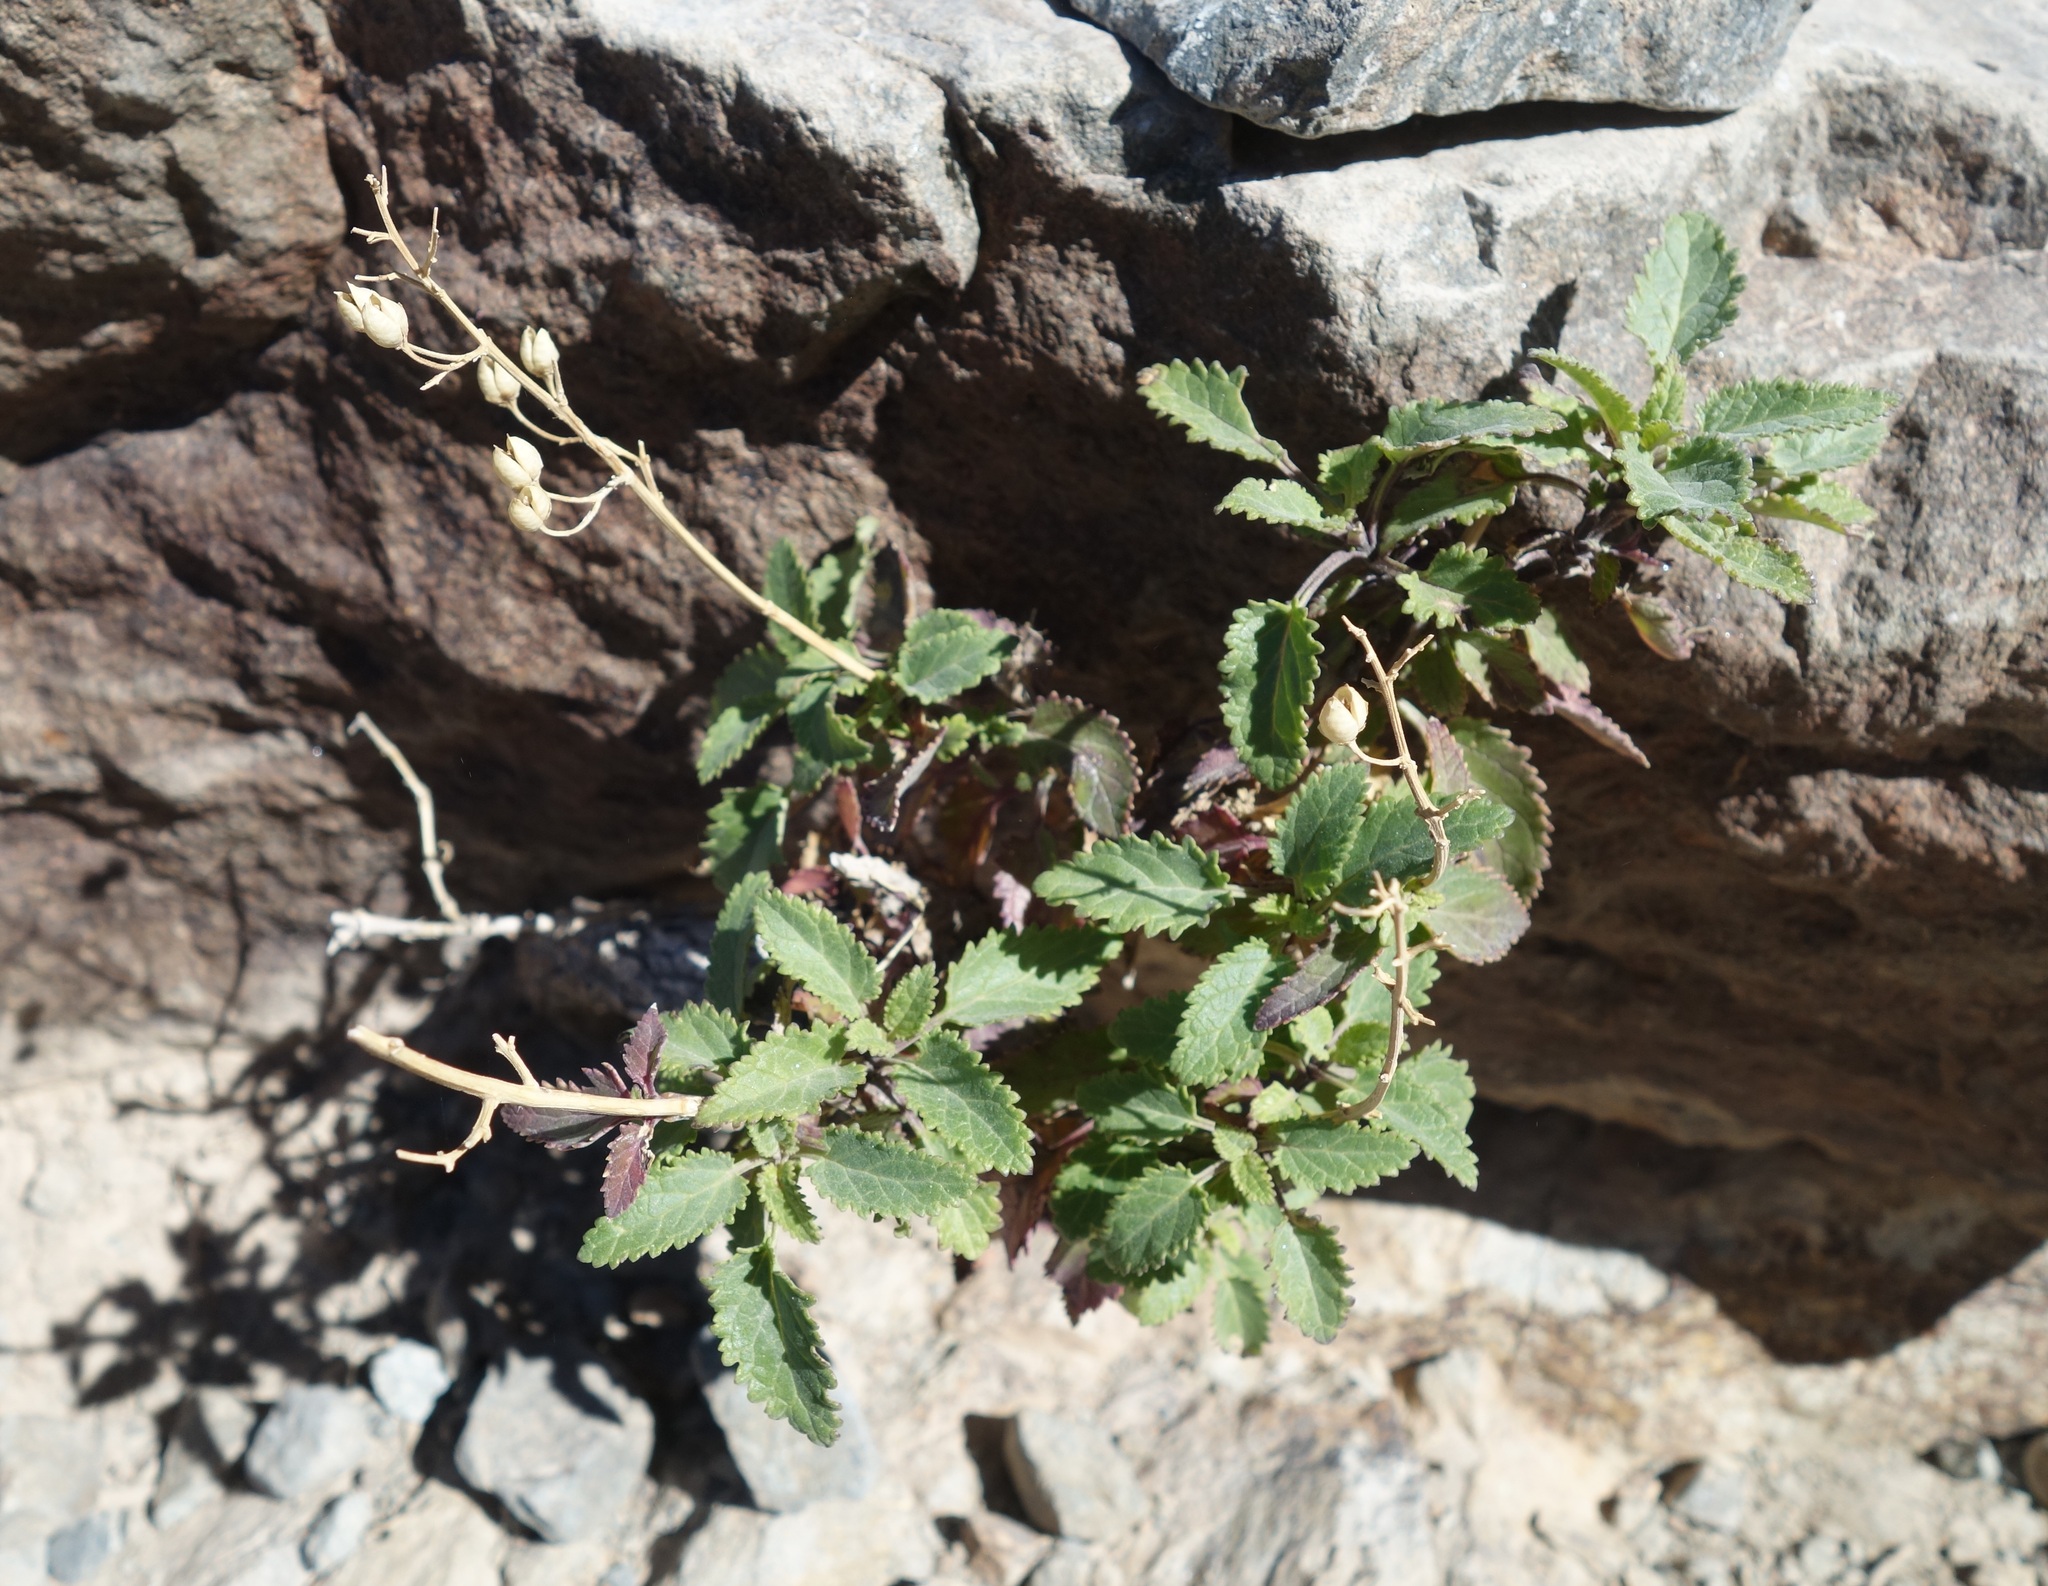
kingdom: Plantae
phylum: Tracheophyta
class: Magnoliopsida
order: Lamiales
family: Scrophulariaceae
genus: Scrophularia
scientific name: Scrophularia glabrata
